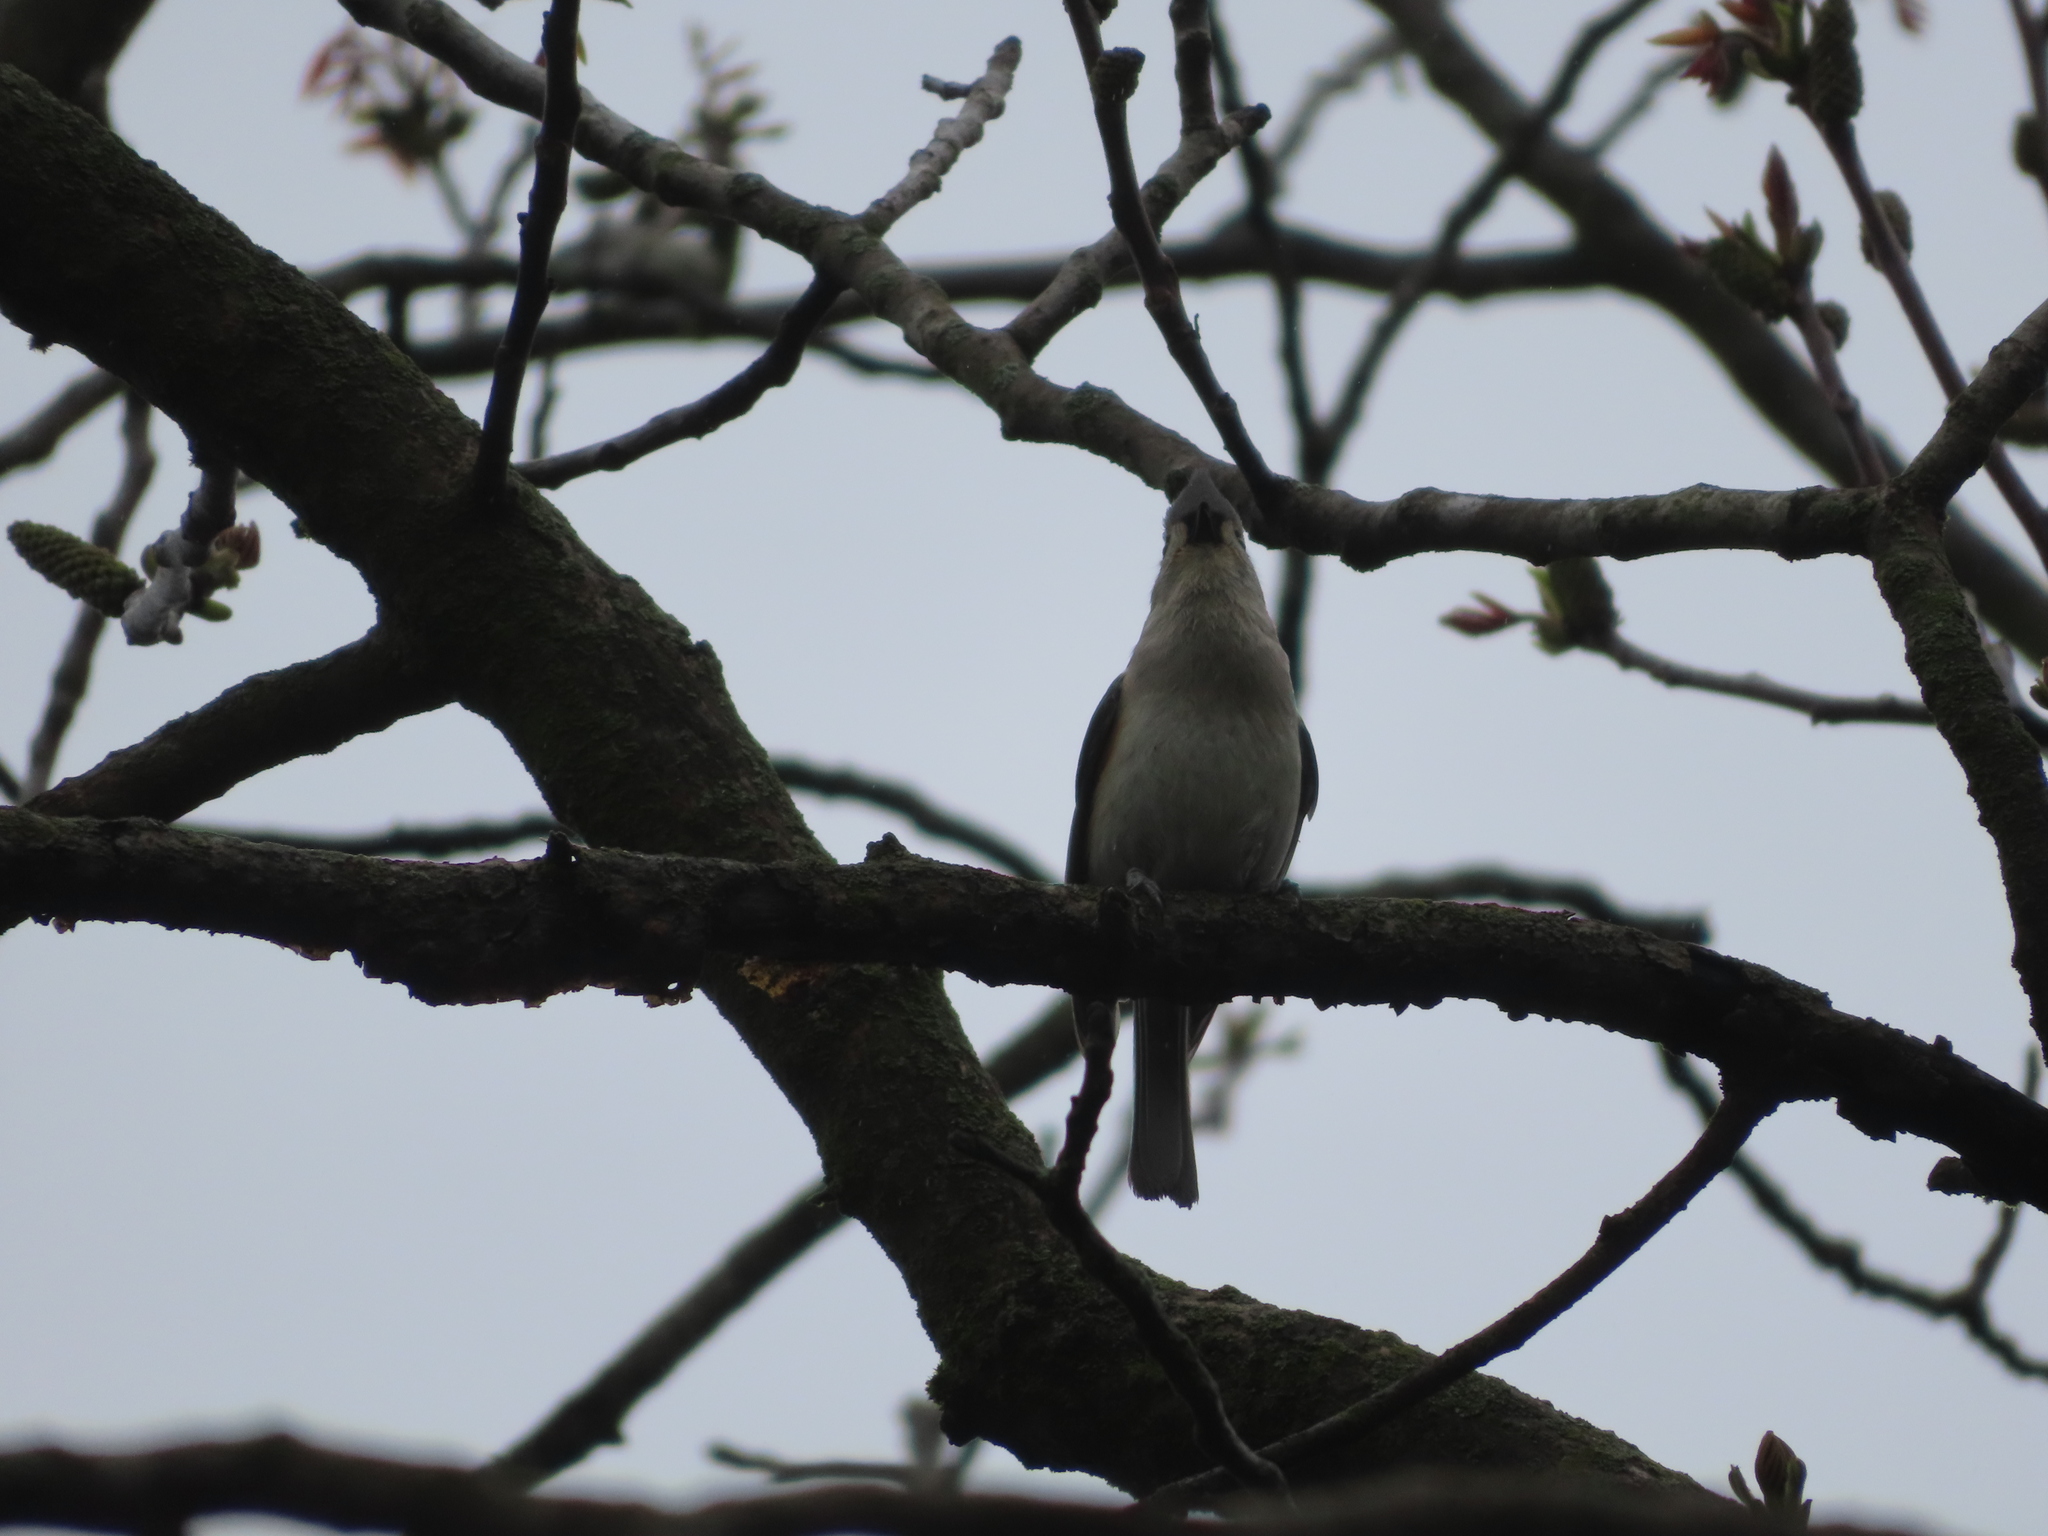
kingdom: Animalia
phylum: Chordata
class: Aves
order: Passeriformes
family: Paridae
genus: Baeolophus
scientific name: Baeolophus bicolor
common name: Tufted titmouse
